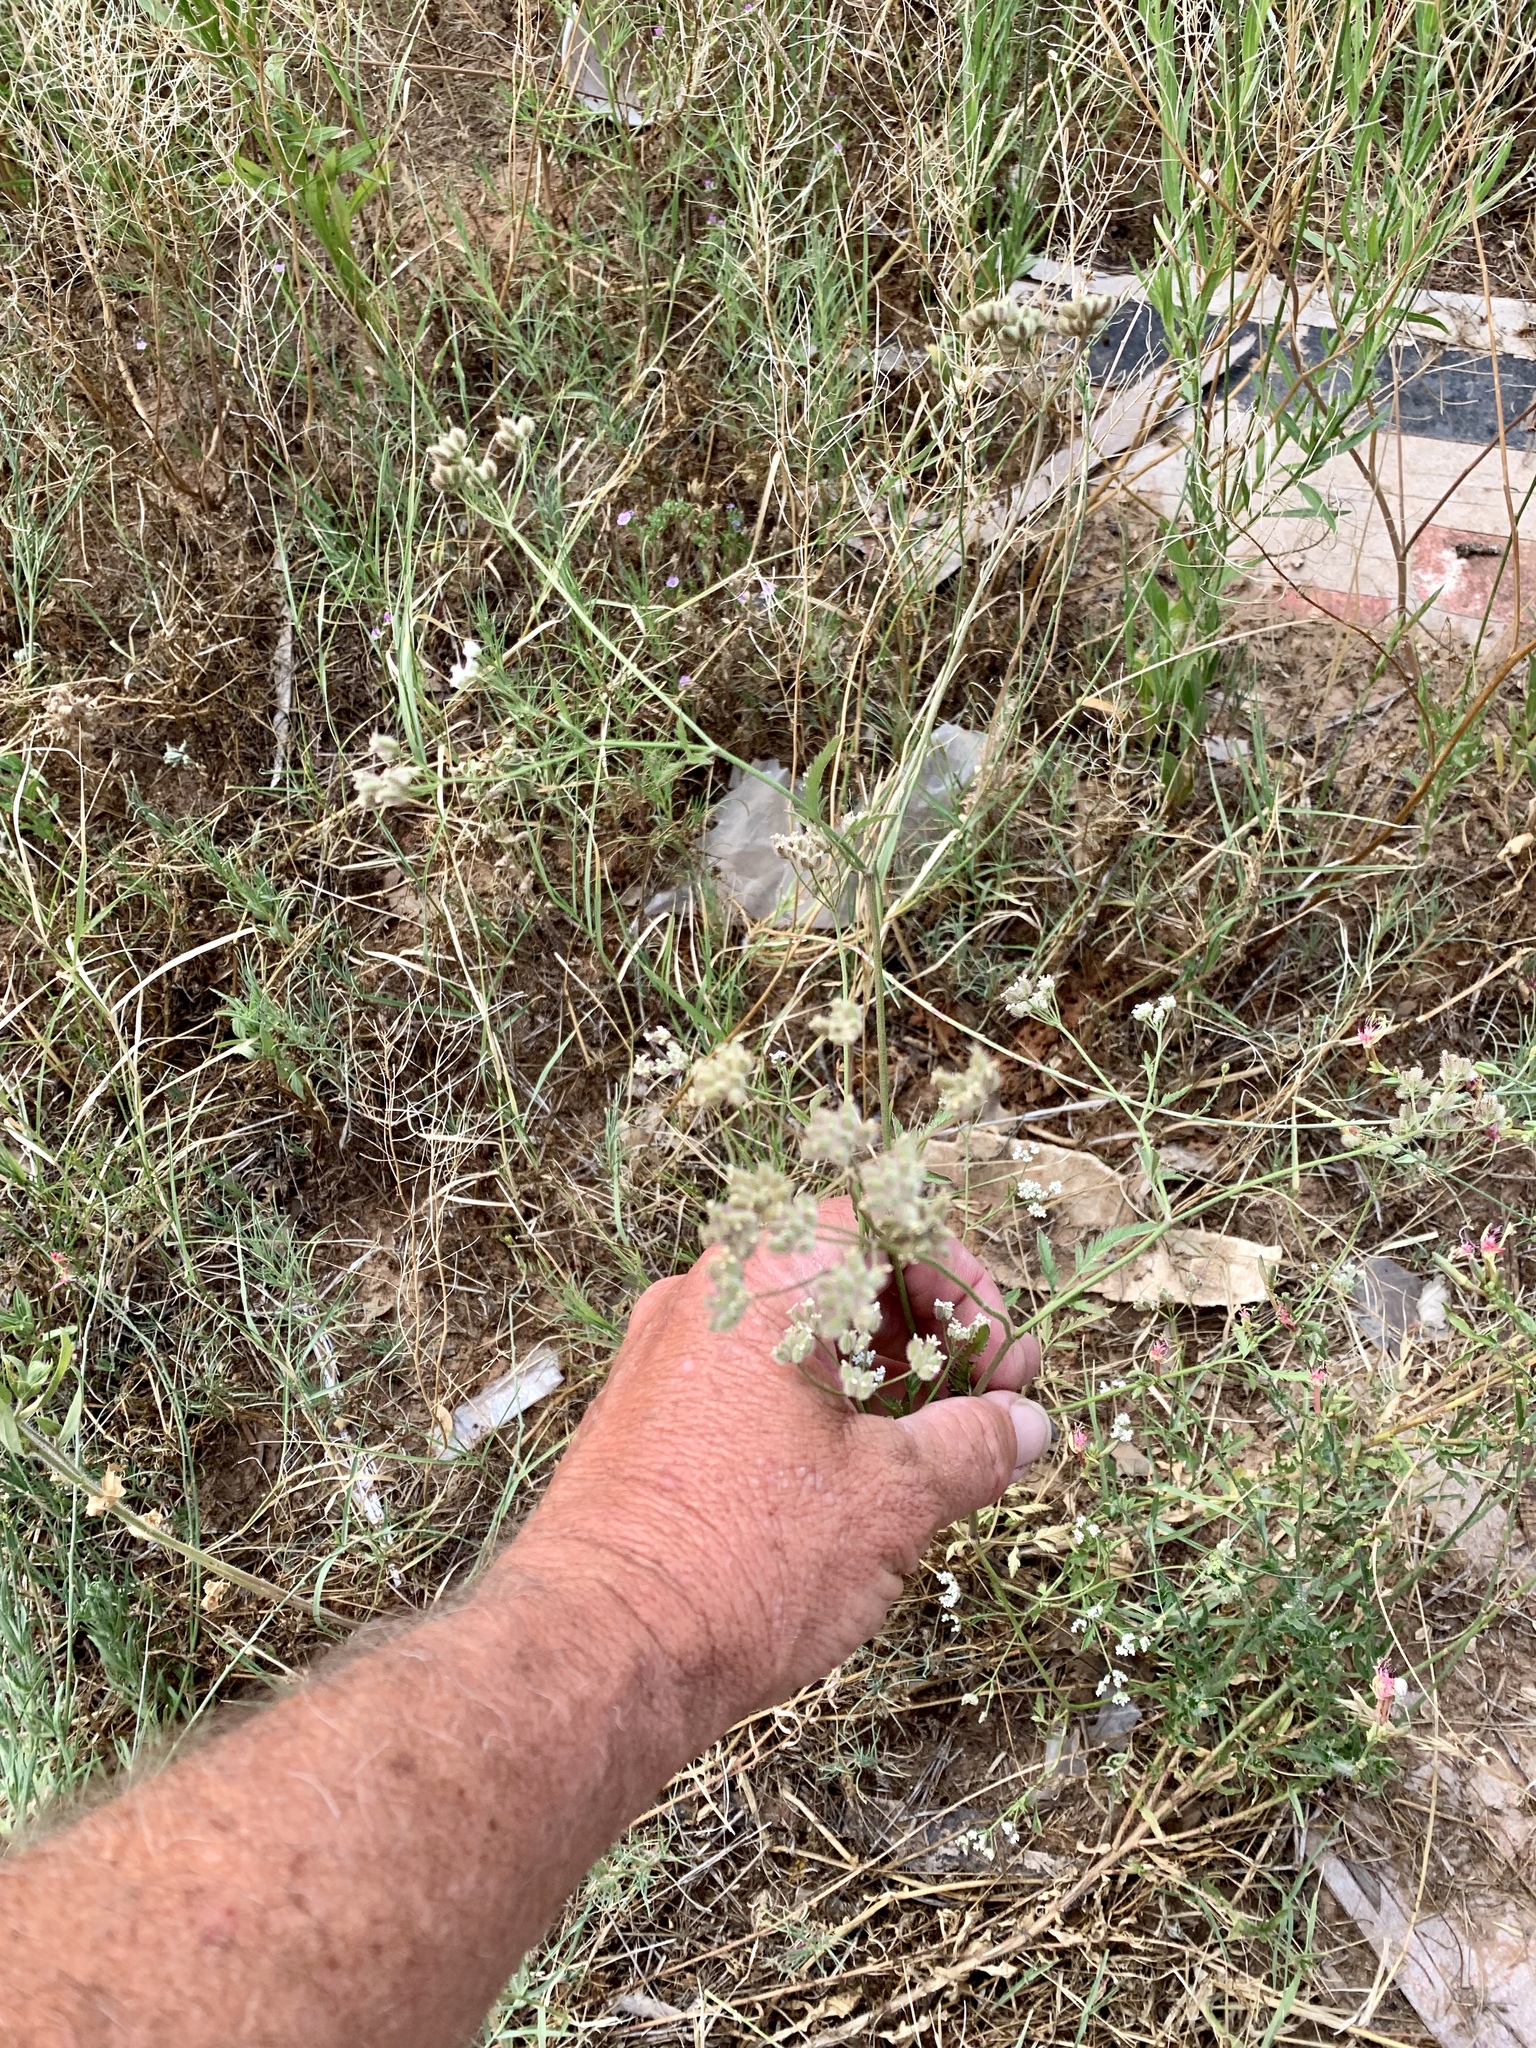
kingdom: Plantae
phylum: Tracheophyta
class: Magnoliopsida
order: Apiales
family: Apiaceae
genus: Torilis
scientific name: Torilis arvensis
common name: Spreading hedge-parsley
